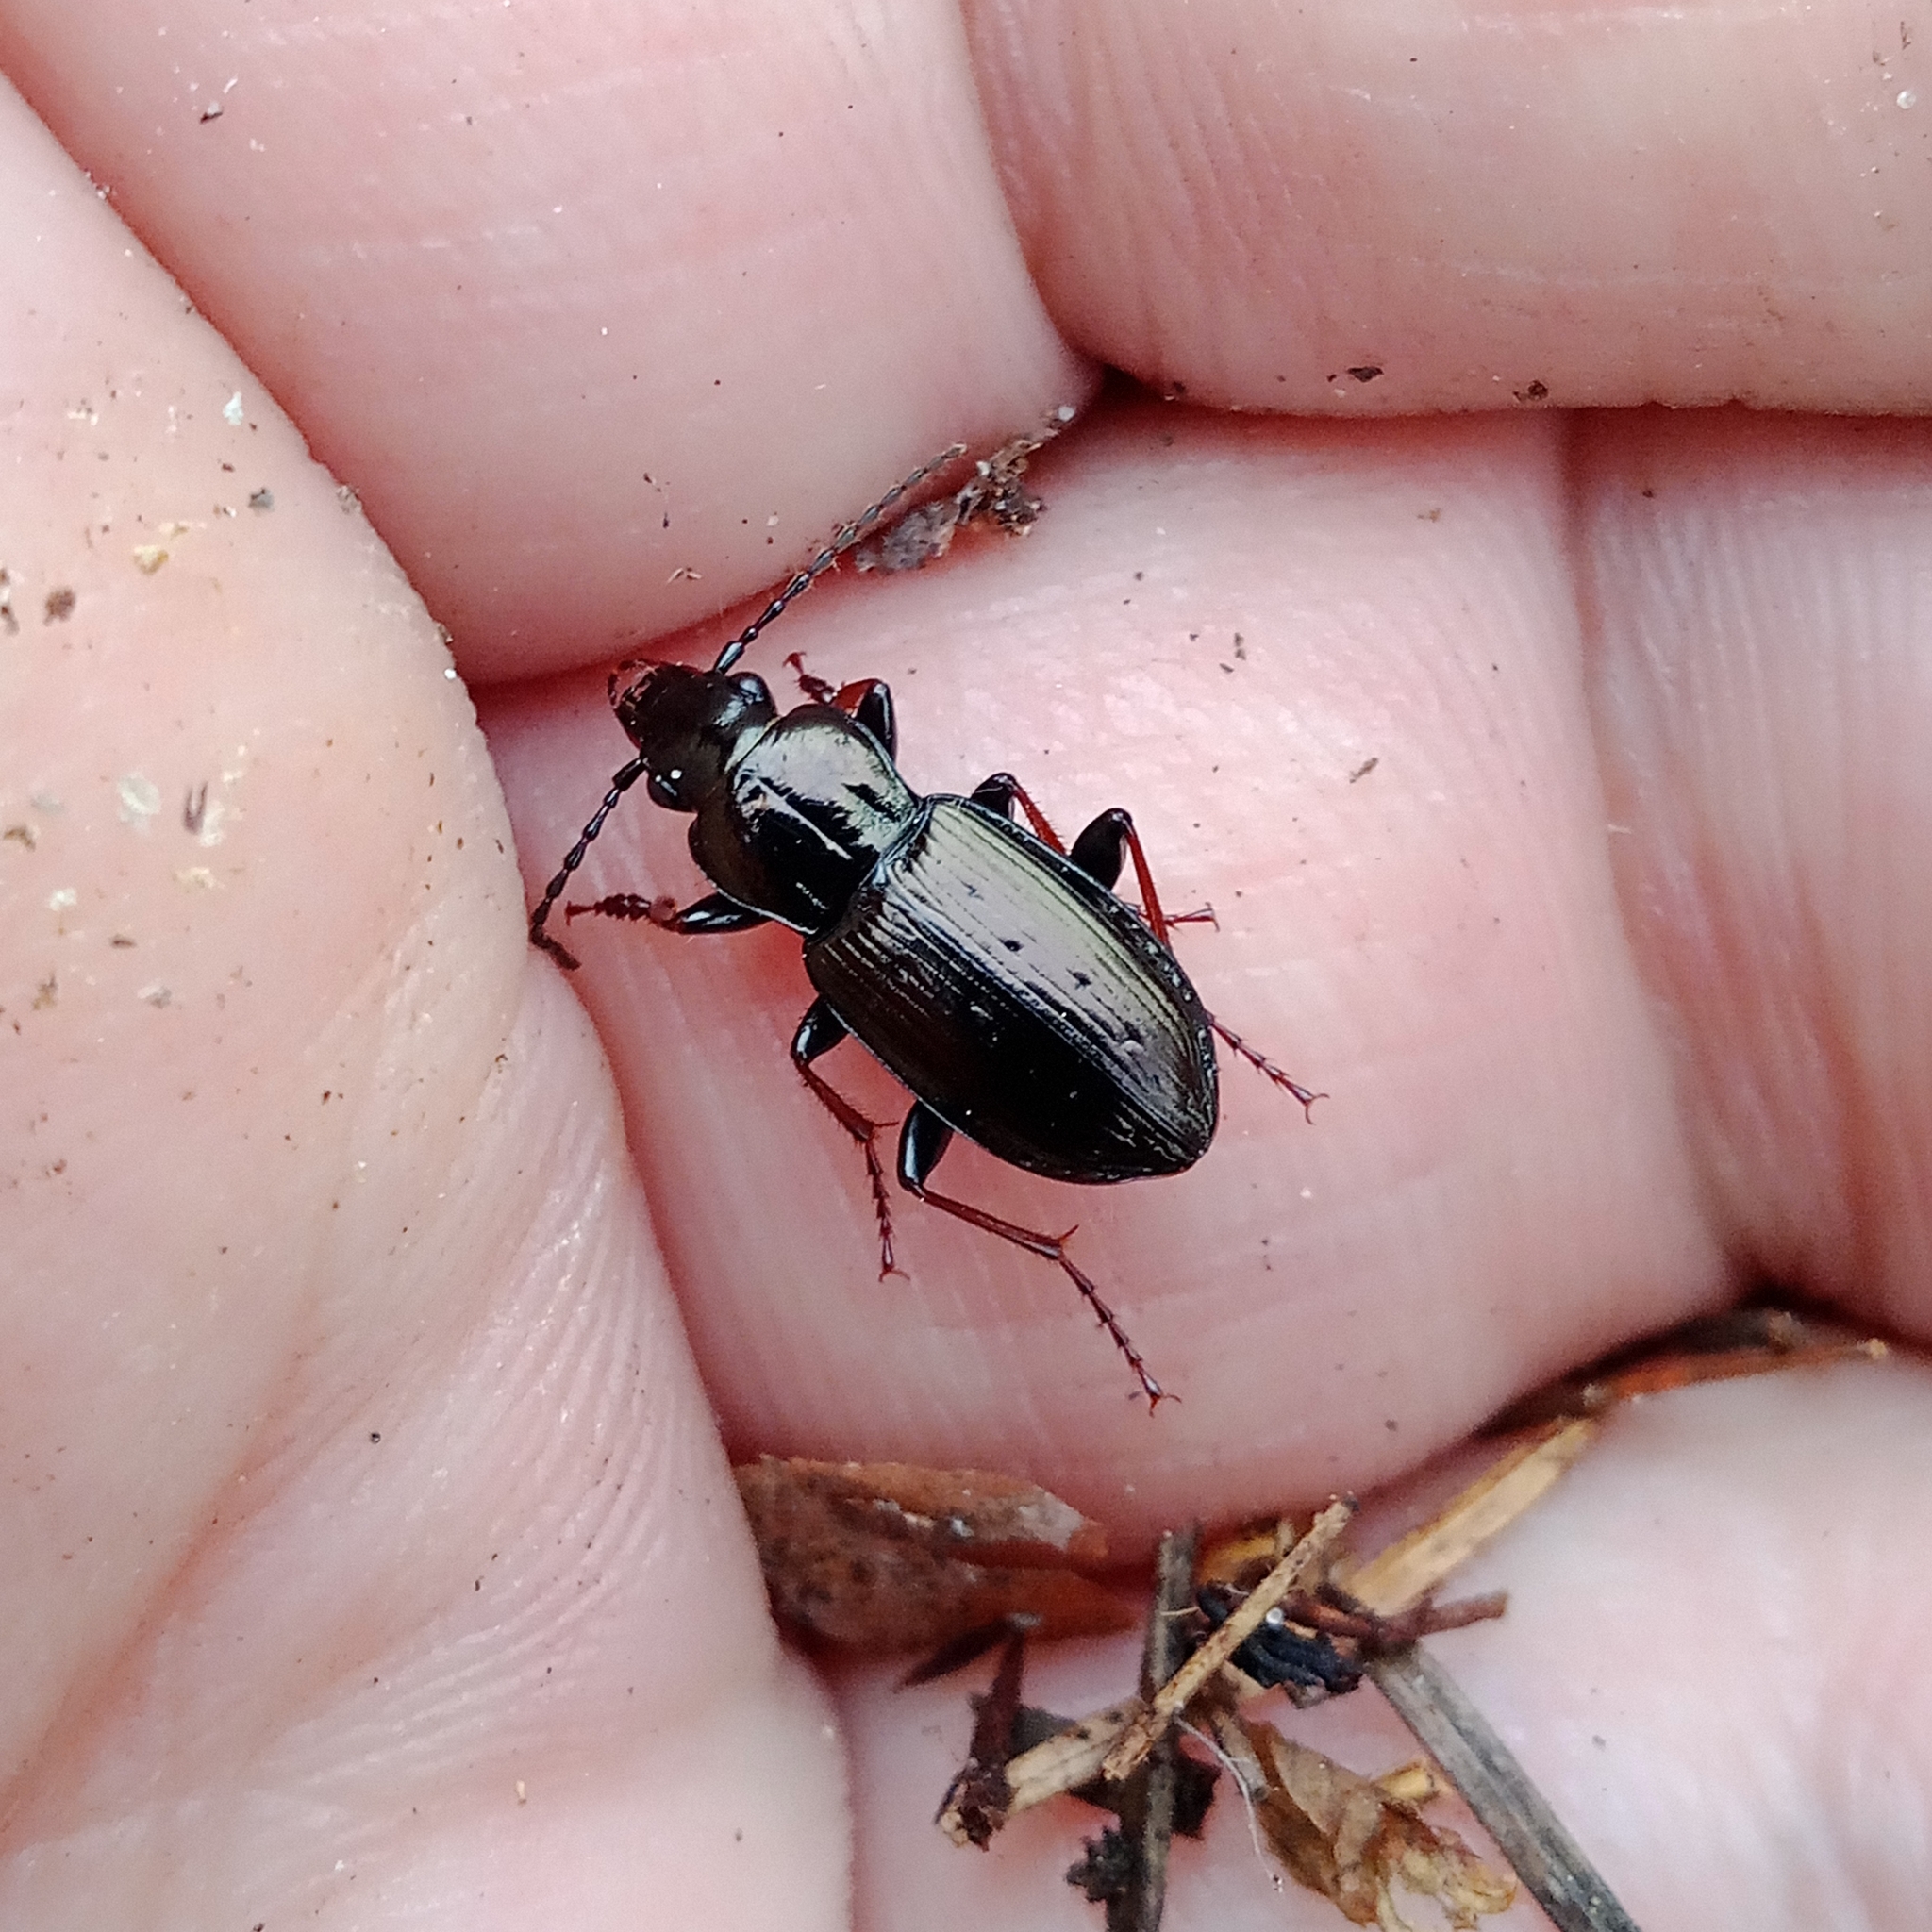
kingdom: Animalia
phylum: Arthropoda
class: Insecta
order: Coleoptera
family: Carabidae
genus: Pterostichus
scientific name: Pterostichus oblongopunctatus
